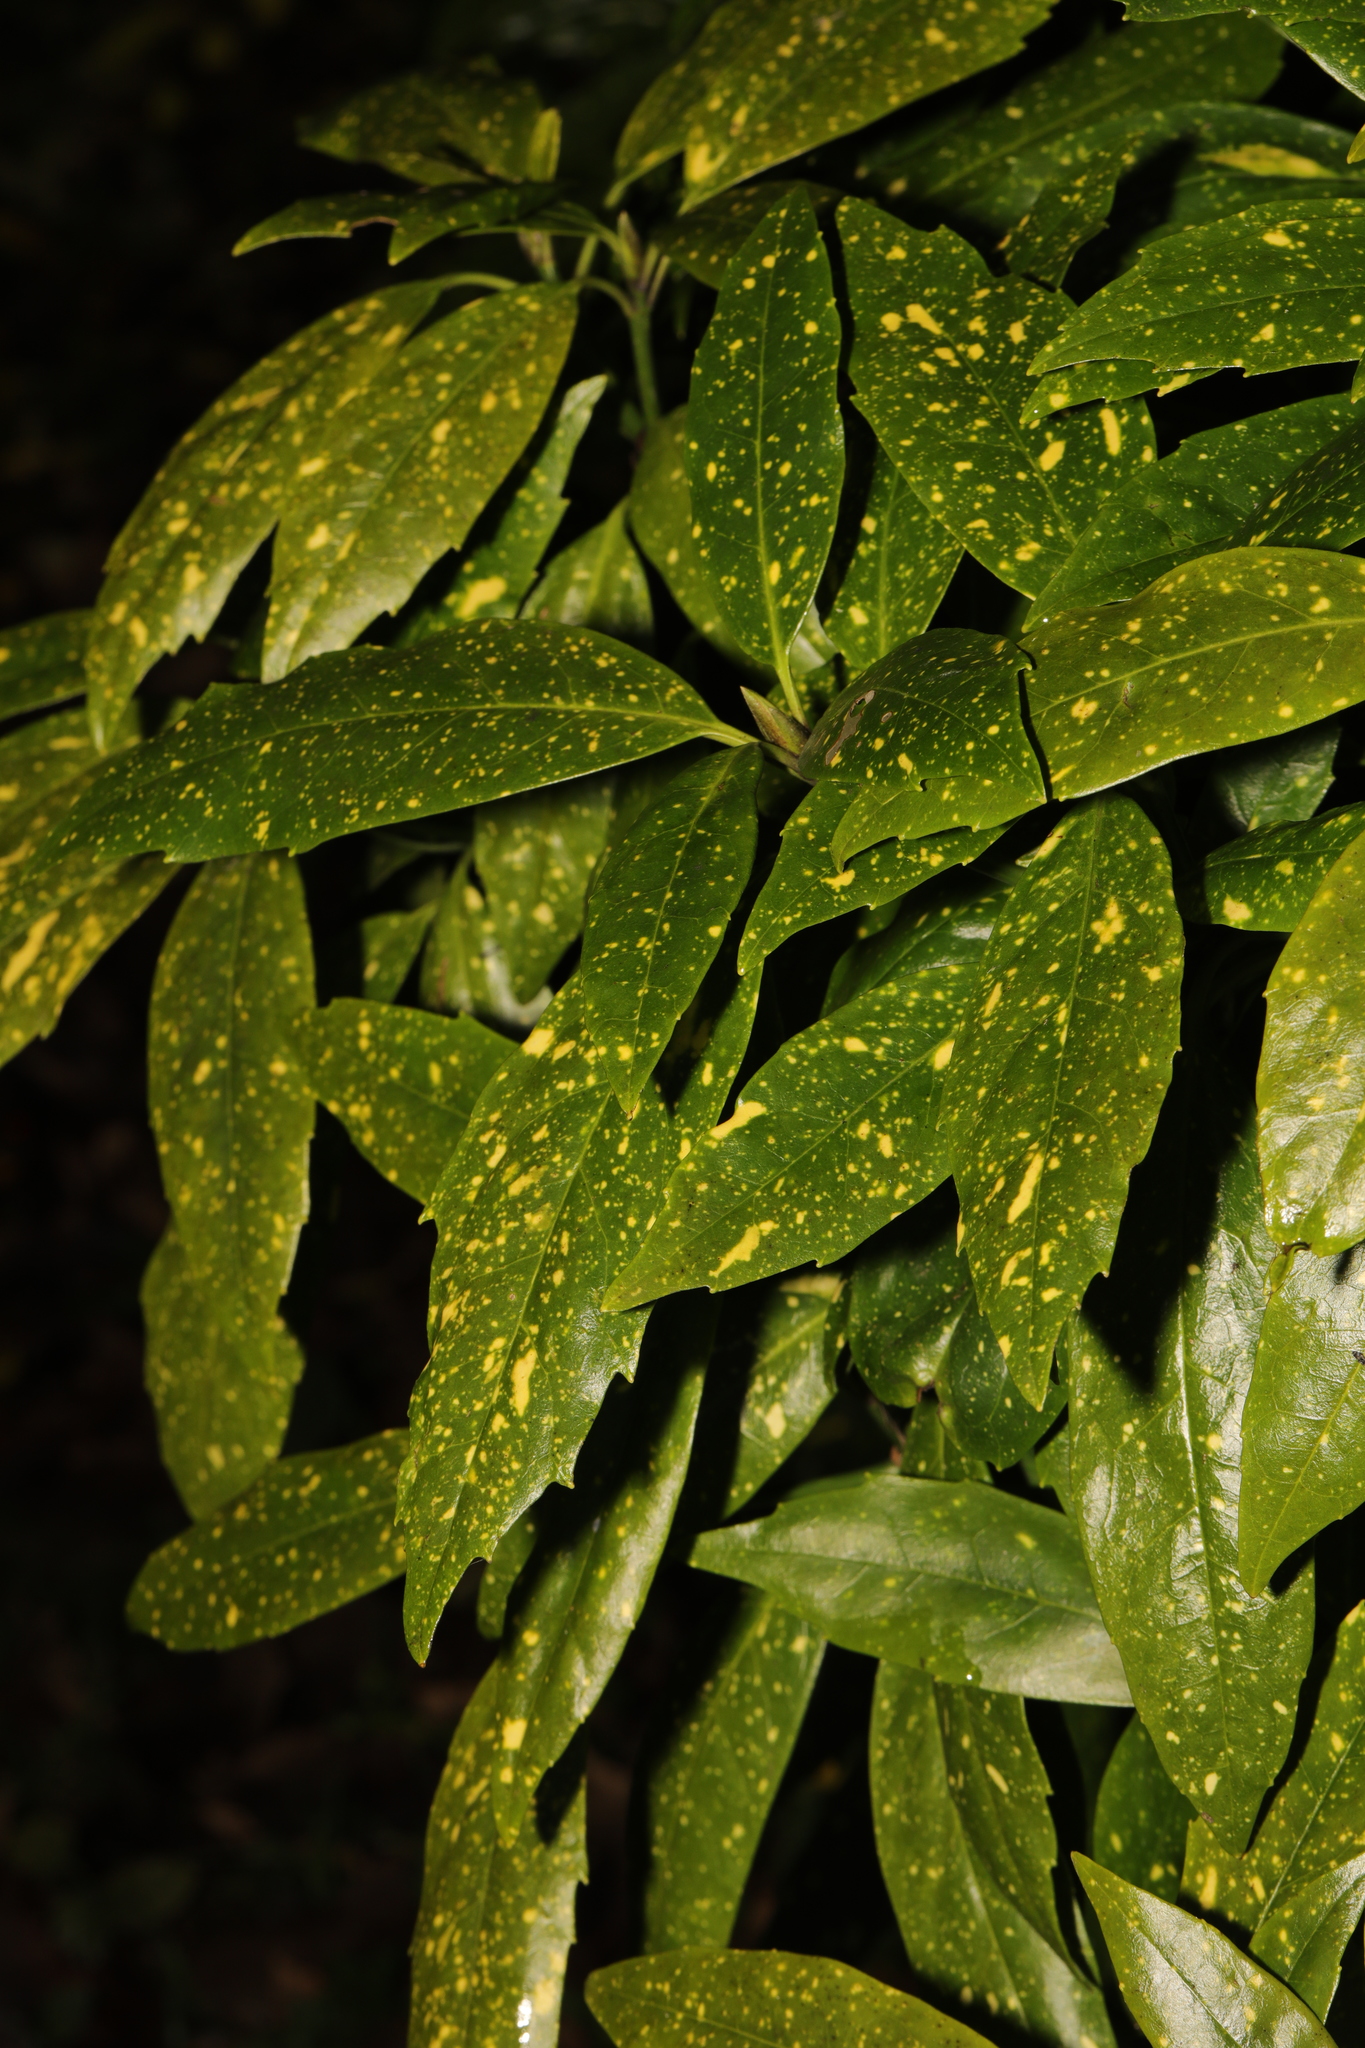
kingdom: Plantae
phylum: Tracheophyta
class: Magnoliopsida
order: Garryales
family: Garryaceae
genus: Aucuba
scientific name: Aucuba japonica
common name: Spotted-laurel
